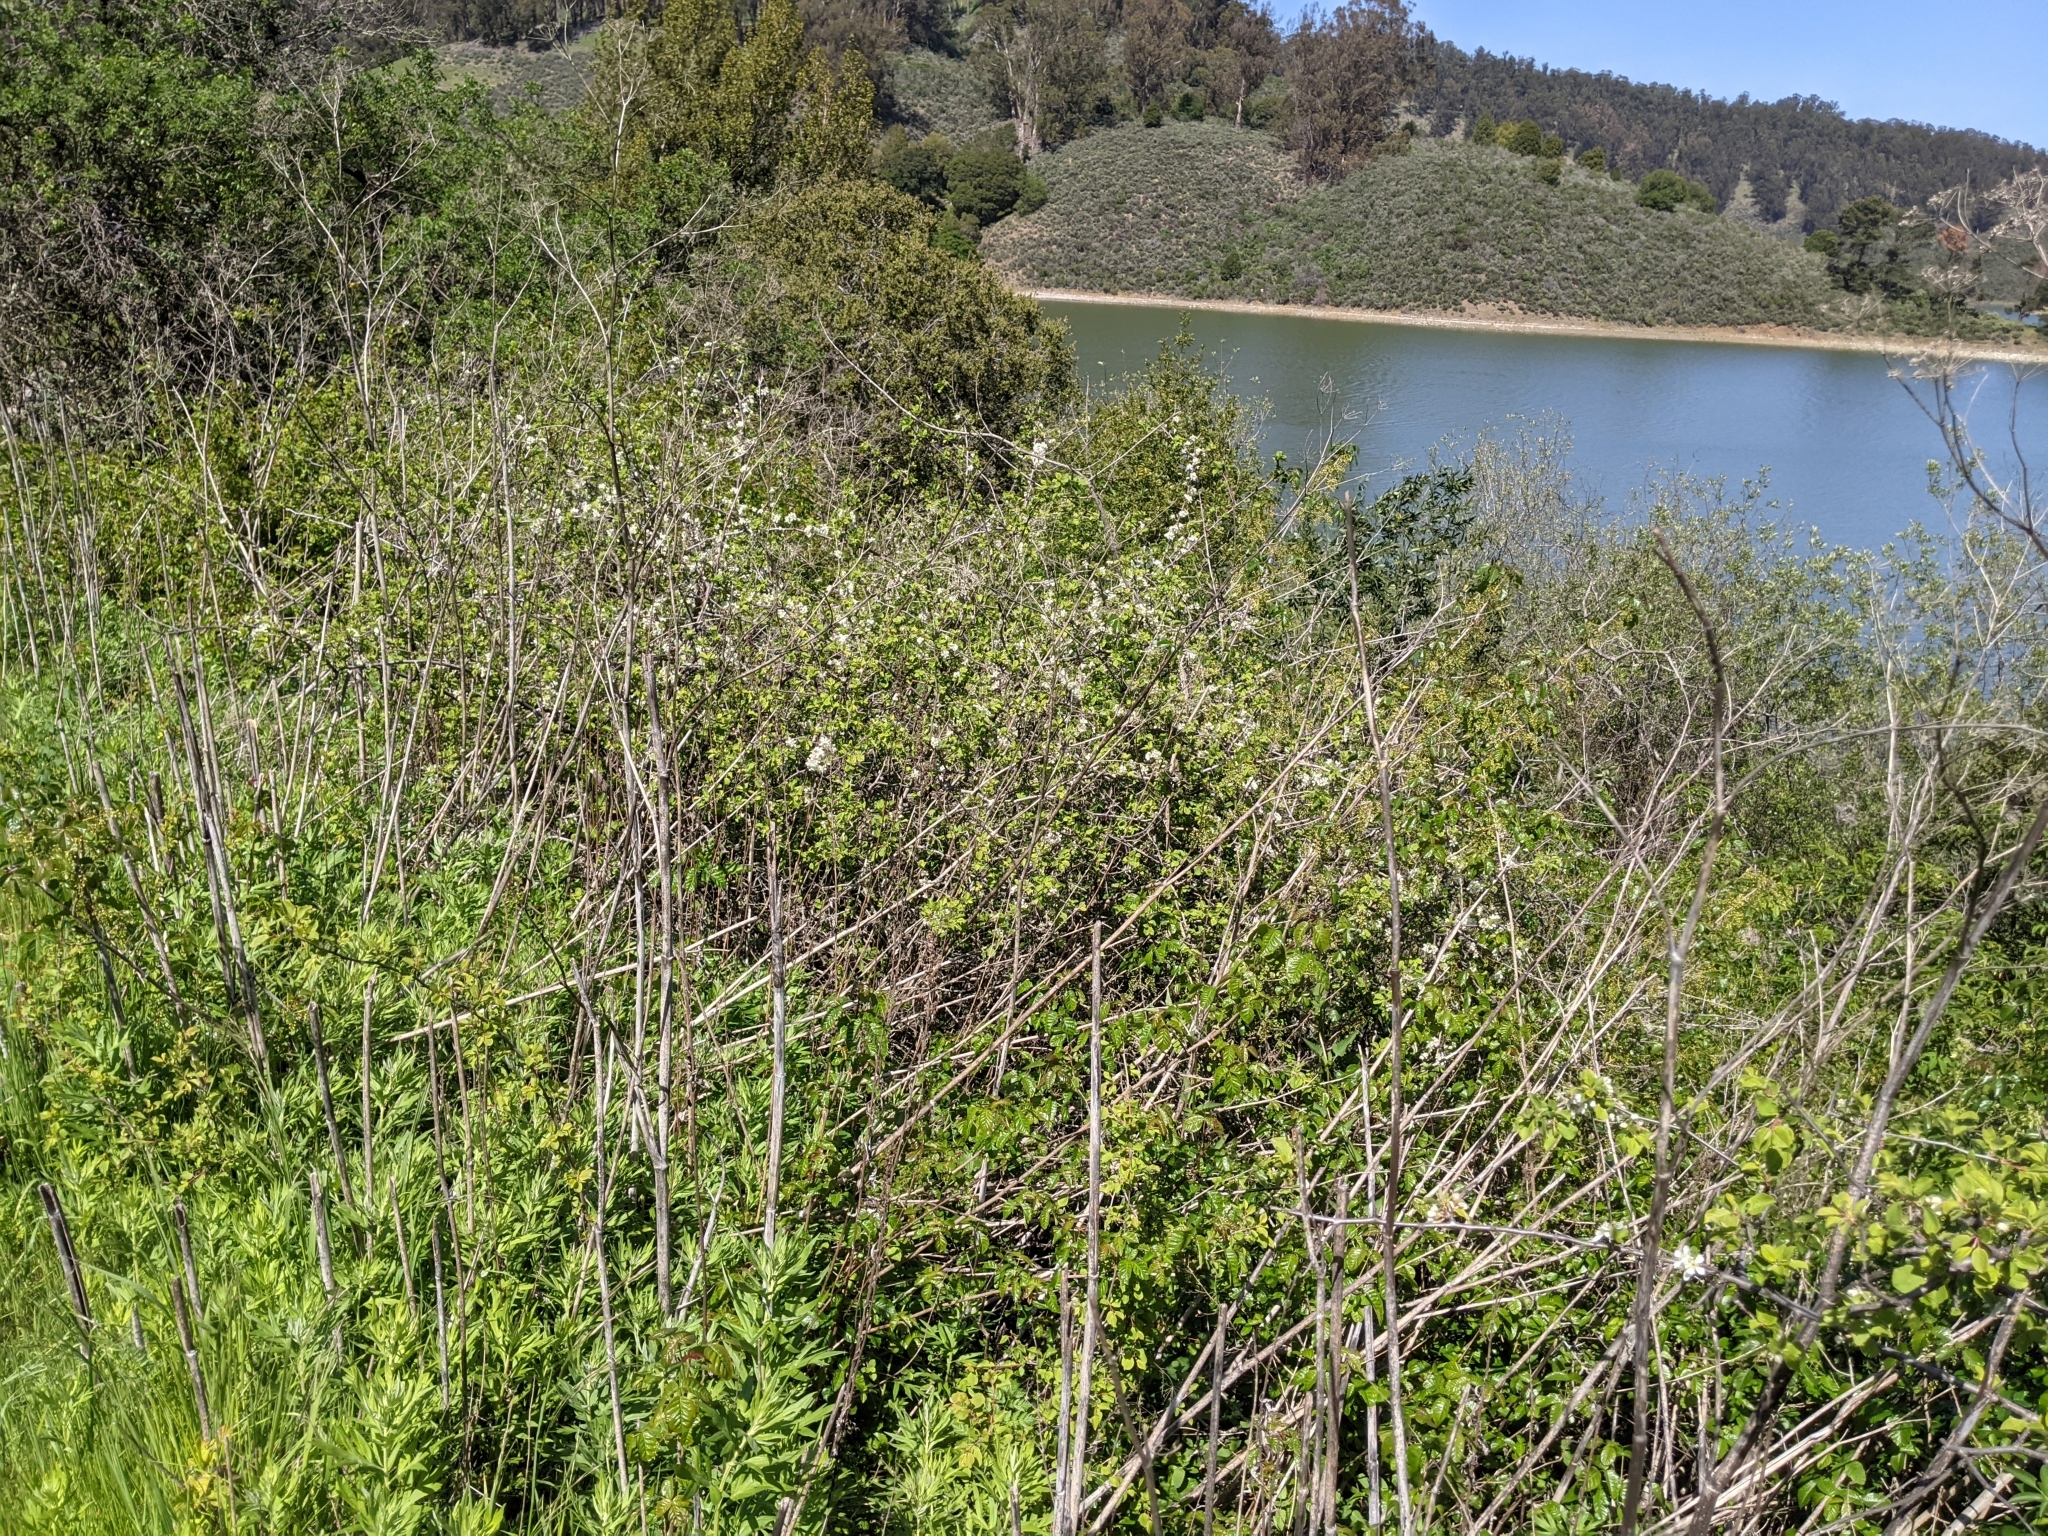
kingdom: Plantae
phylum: Tracheophyta
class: Magnoliopsida
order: Rosales
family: Rosaceae
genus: Prunus
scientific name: Prunus subcordata
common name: Klamath plum
